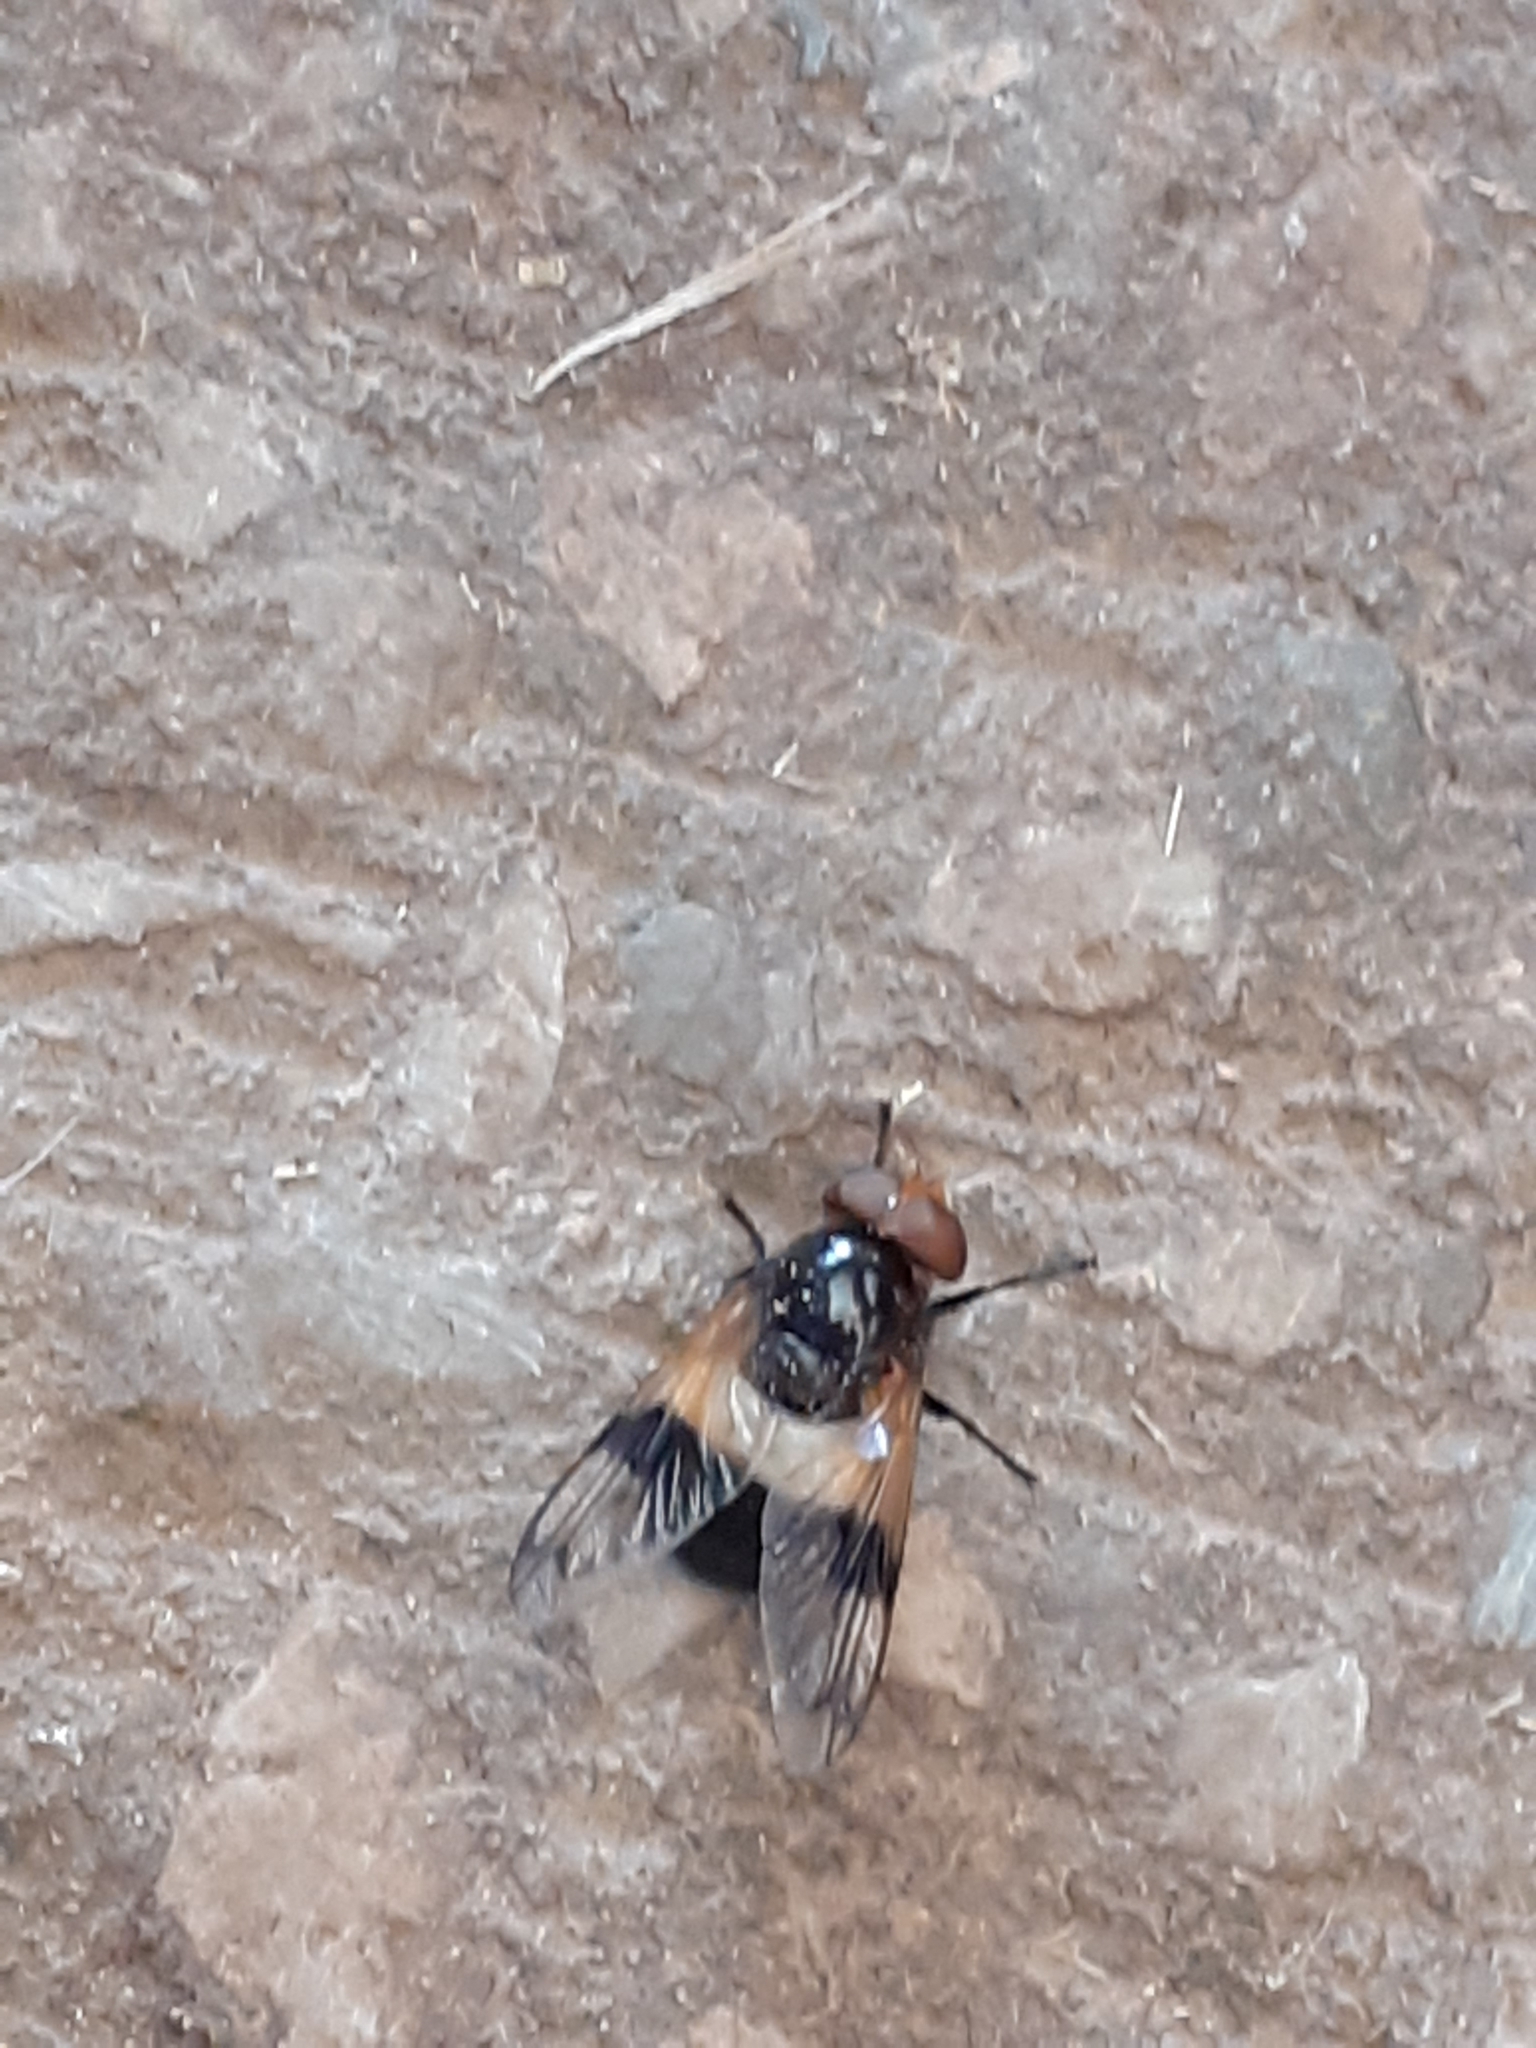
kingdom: Animalia
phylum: Arthropoda
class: Insecta
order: Diptera
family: Syrphidae
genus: Volucella
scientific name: Volucella pellucens
